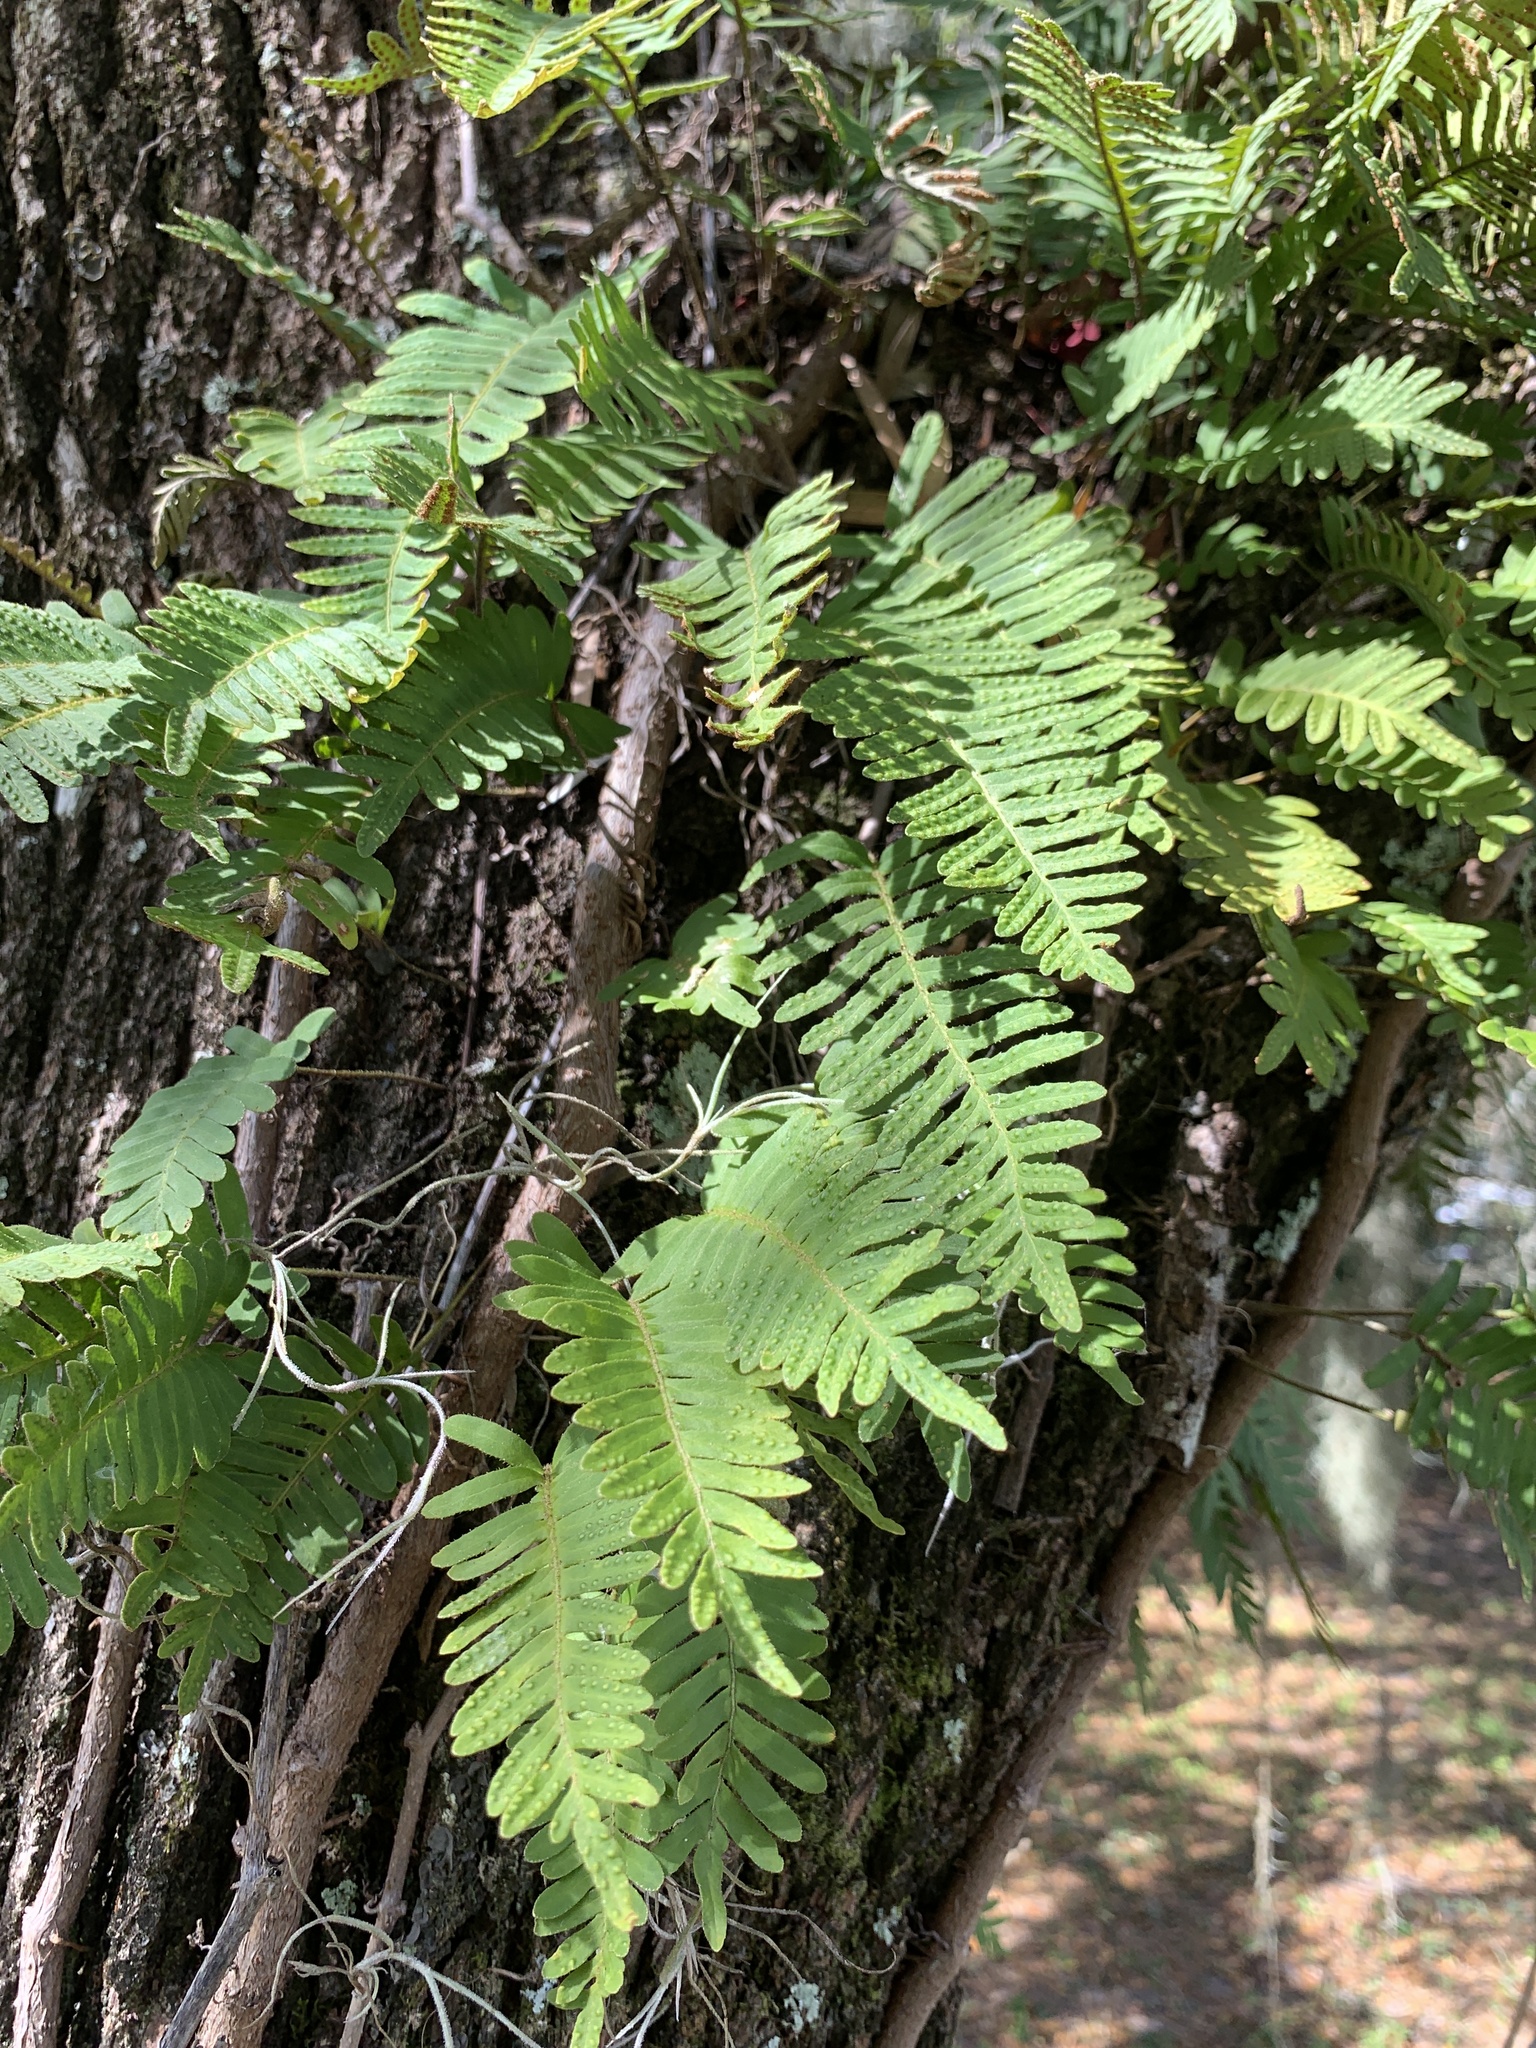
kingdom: Plantae
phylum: Tracheophyta
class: Polypodiopsida
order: Polypodiales
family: Polypodiaceae
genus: Pleopeltis
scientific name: Pleopeltis michauxiana
